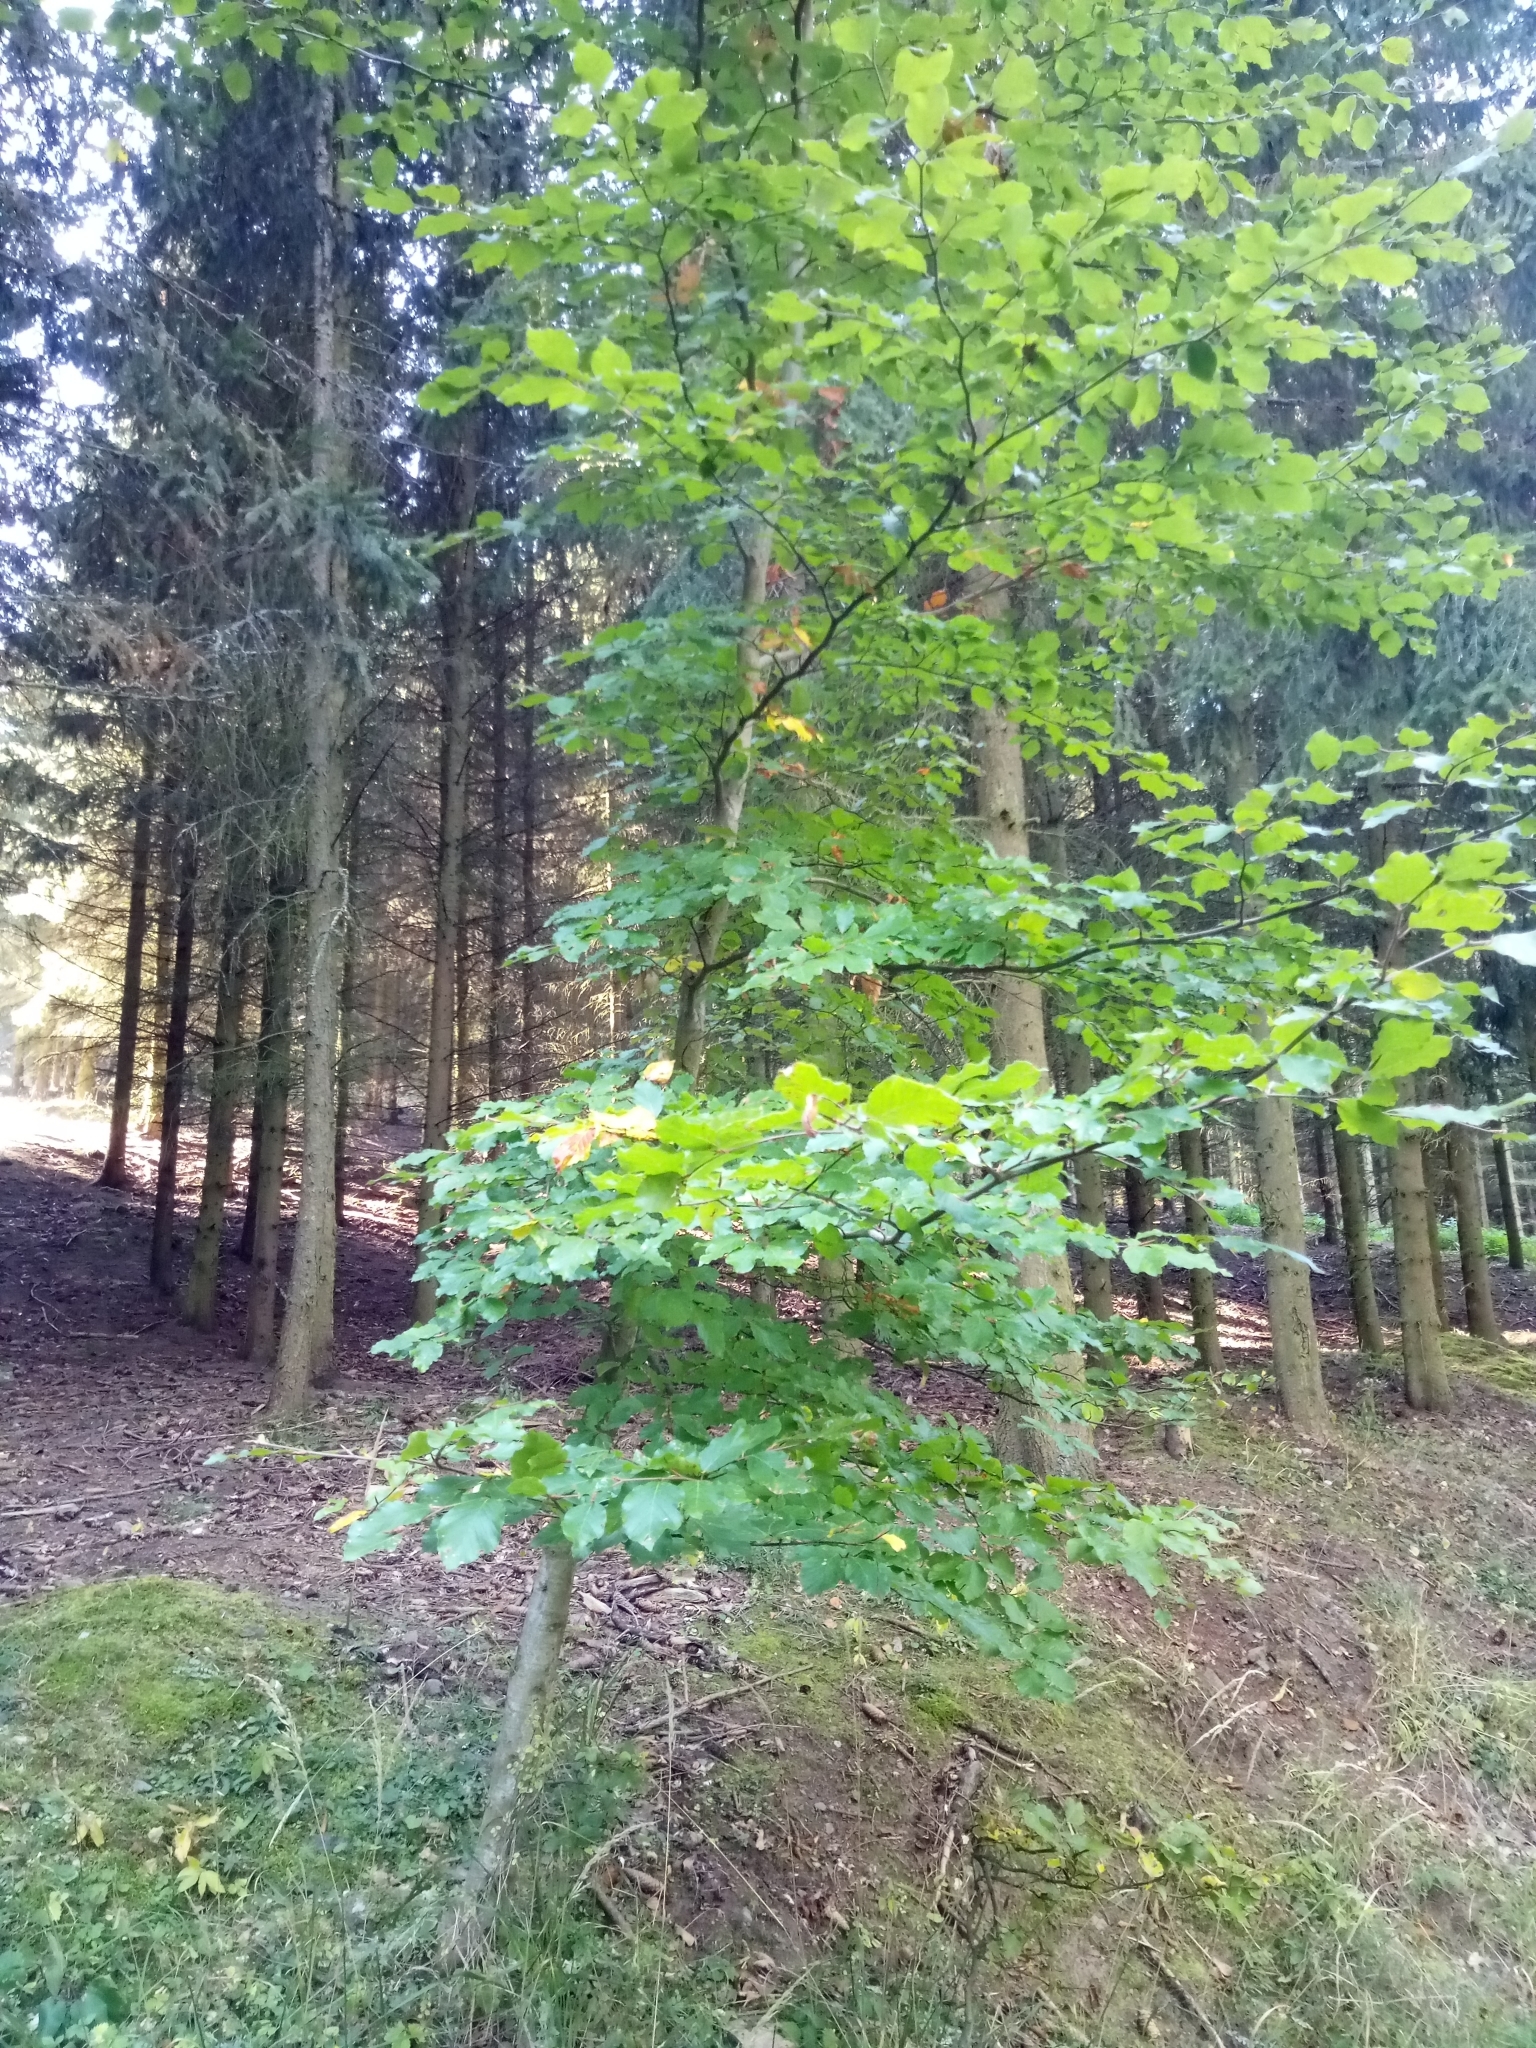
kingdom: Plantae
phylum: Tracheophyta
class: Magnoliopsida
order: Fagales
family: Fagaceae
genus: Fagus
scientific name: Fagus sylvatica
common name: Beech
